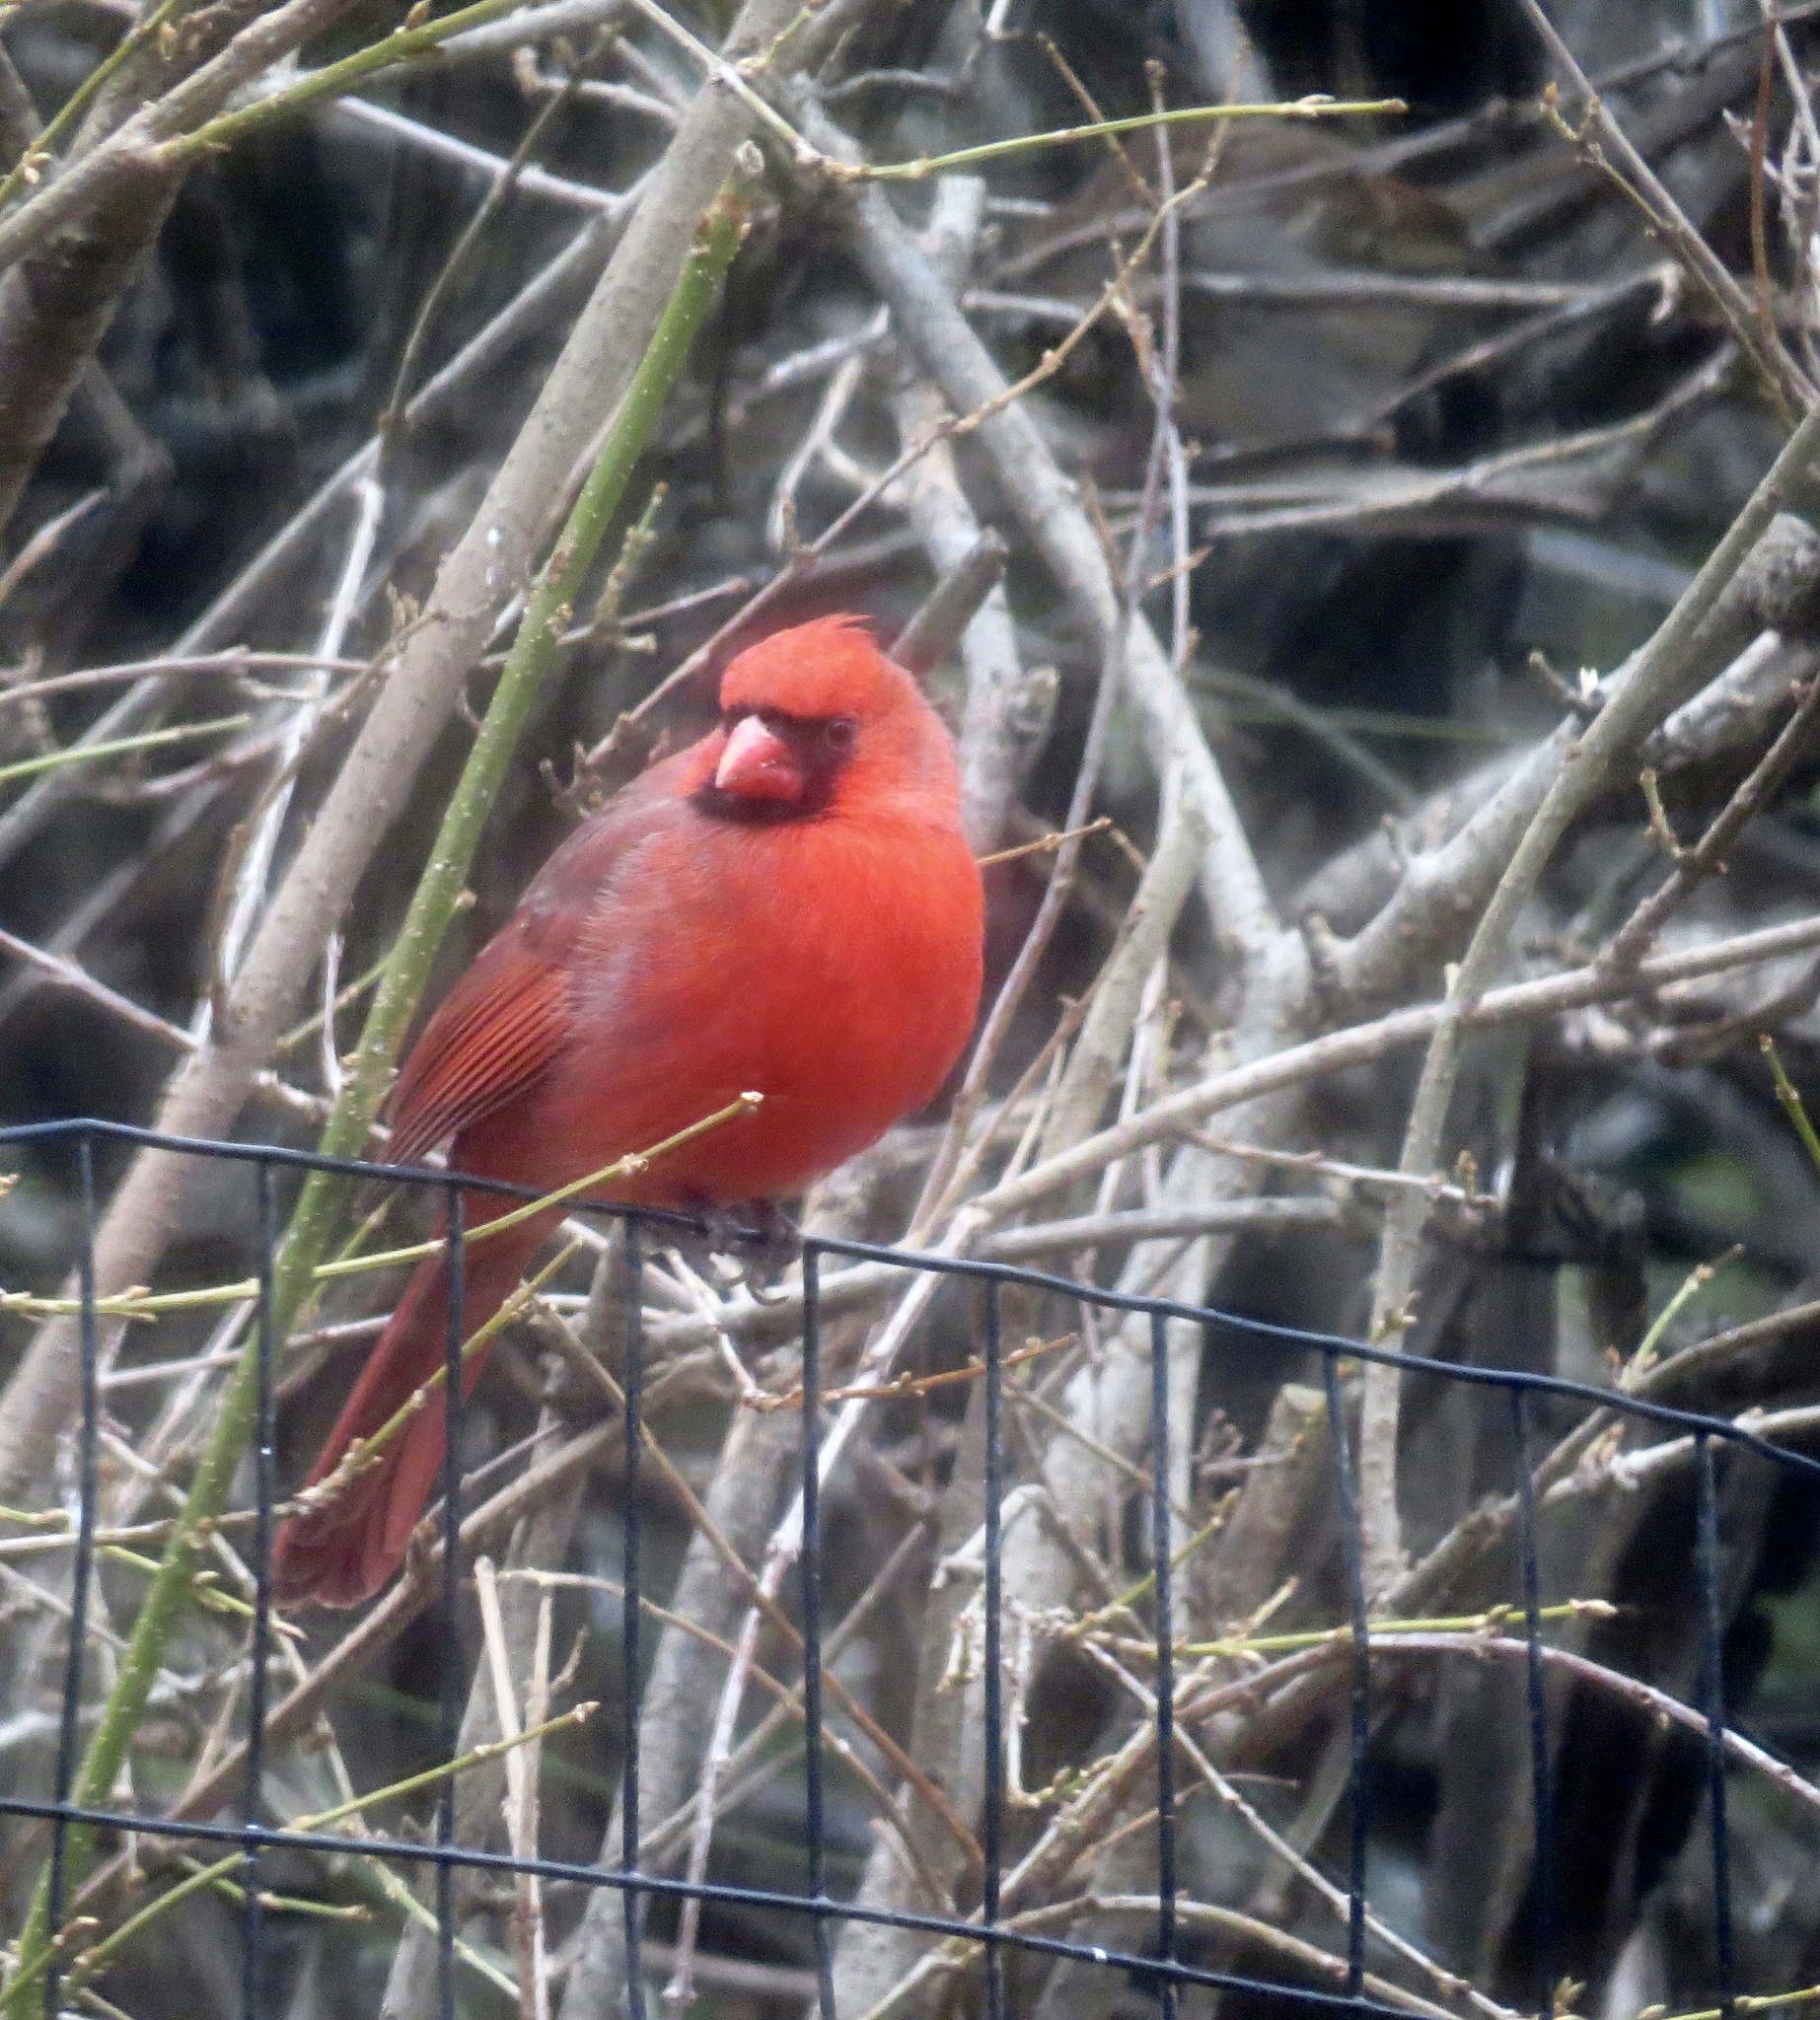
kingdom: Animalia
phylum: Chordata
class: Aves
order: Passeriformes
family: Cardinalidae
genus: Cardinalis
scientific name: Cardinalis cardinalis
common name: Northern cardinal
